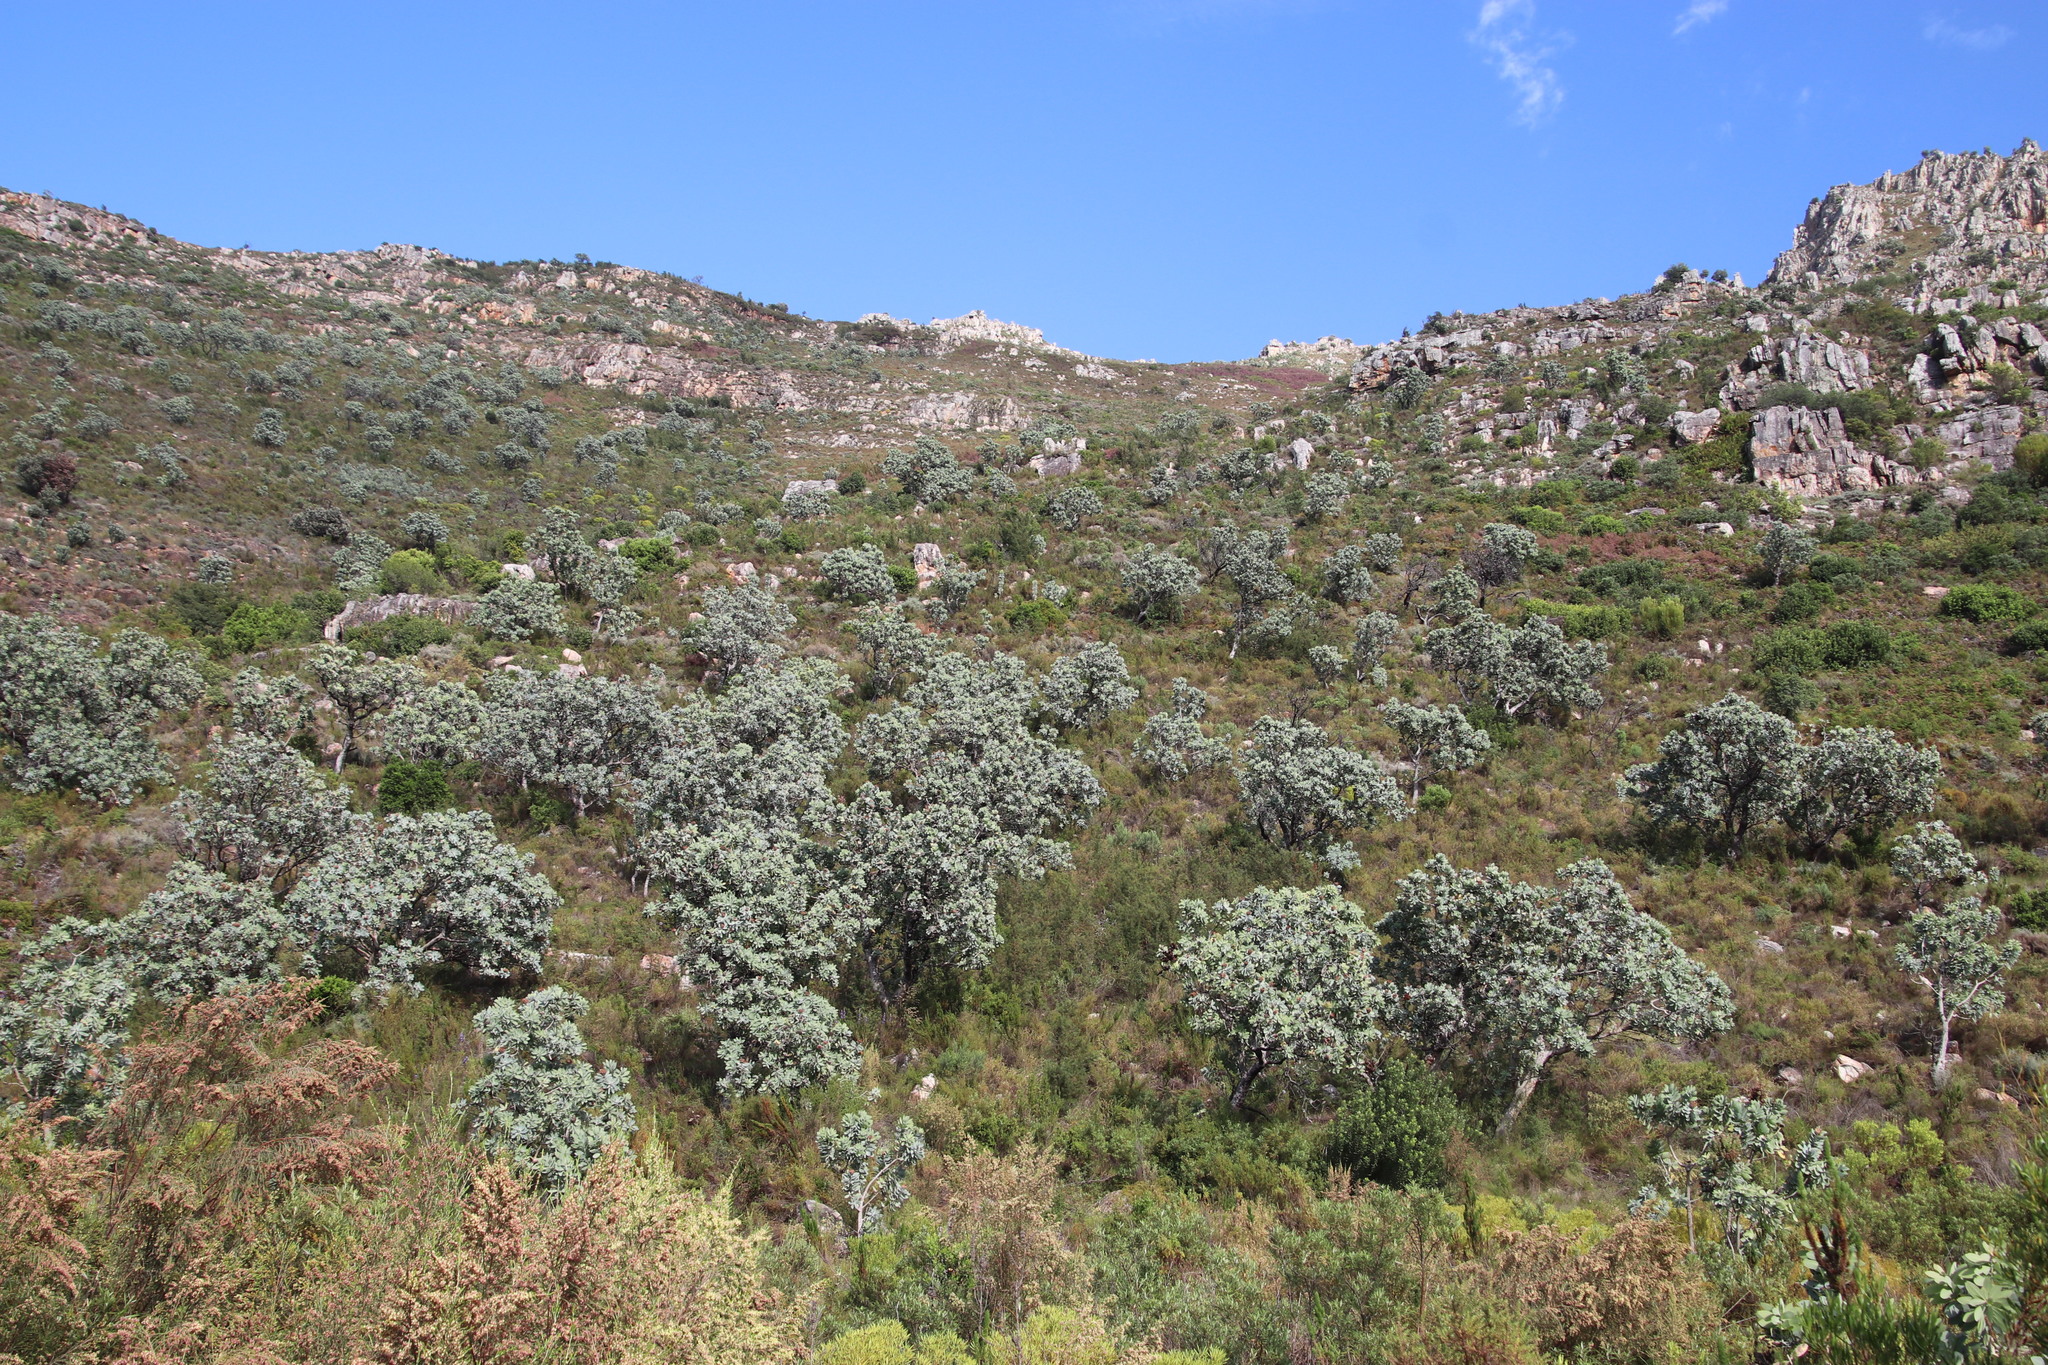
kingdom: Plantae
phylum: Tracheophyta
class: Magnoliopsida
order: Proteales
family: Proteaceae
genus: Protea
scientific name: Protea nitida
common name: Tree protea
